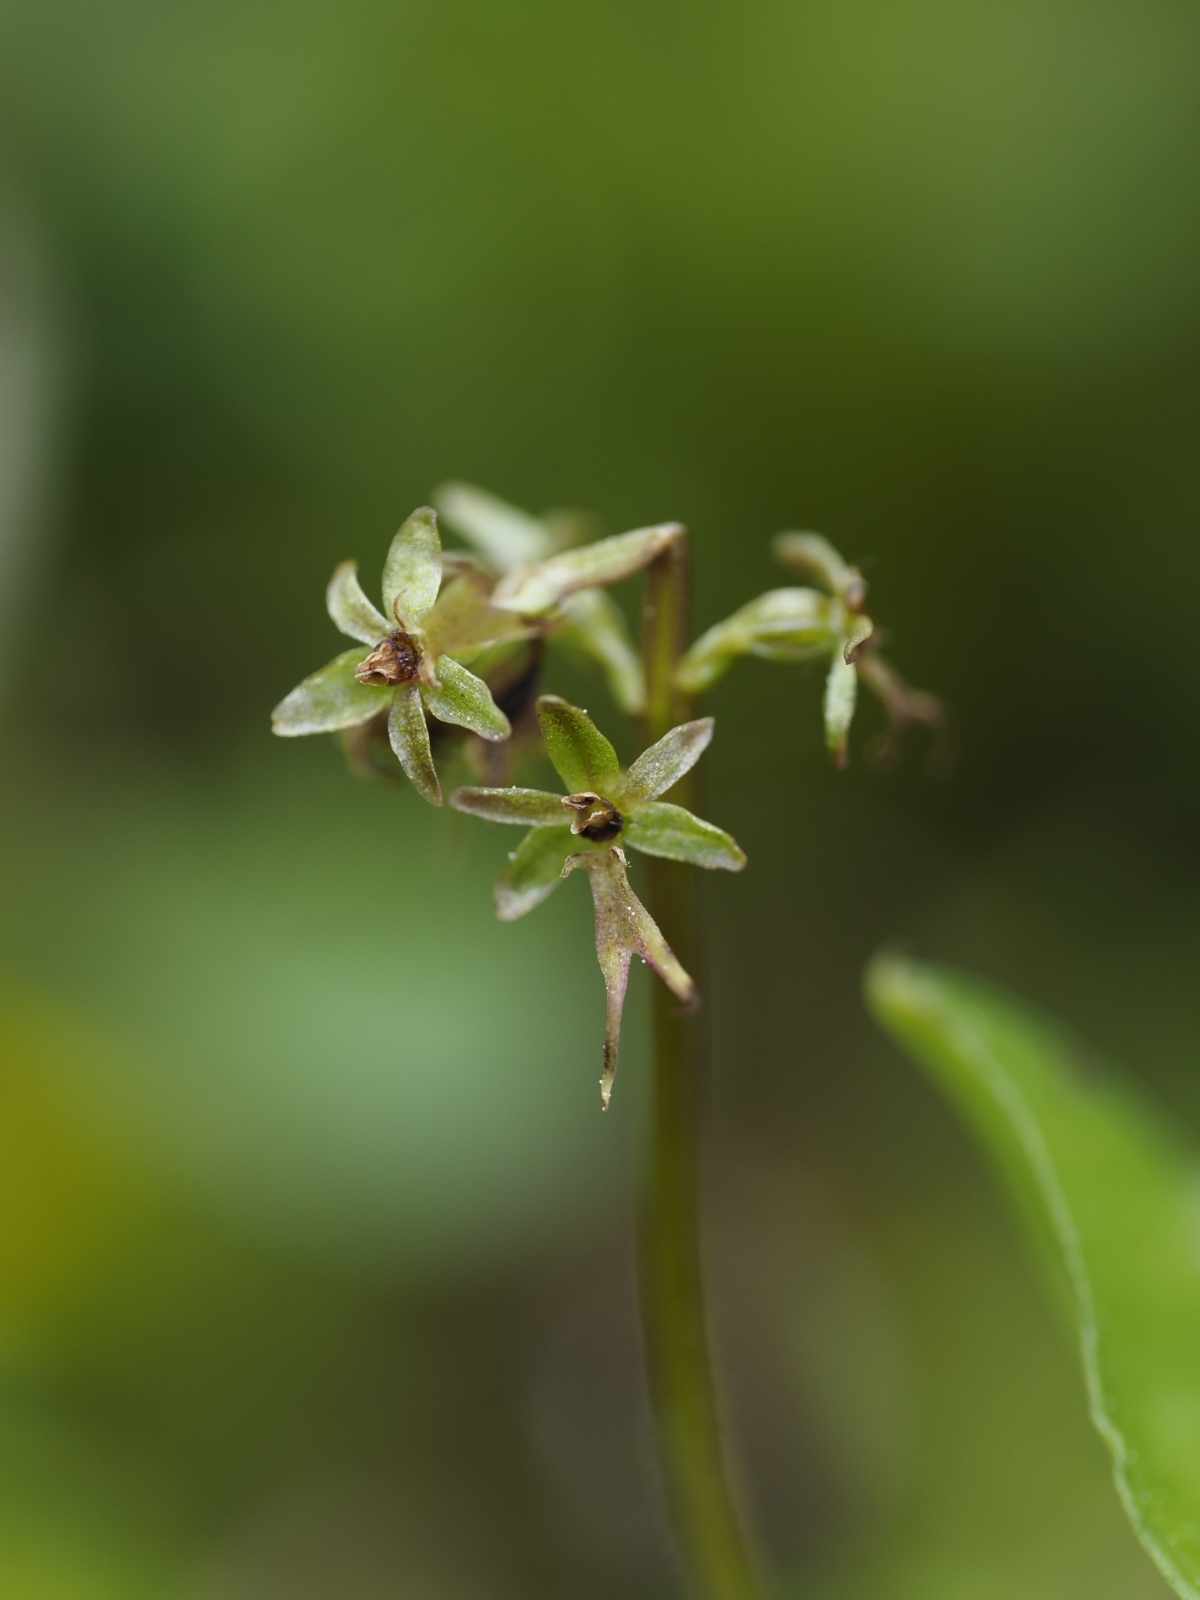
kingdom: Plantae
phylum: Tracheophyta
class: Liliopsida
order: Asparagales
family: Orchidaceae
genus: Neottia
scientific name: Neottia cordata
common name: Lesser twayblade
